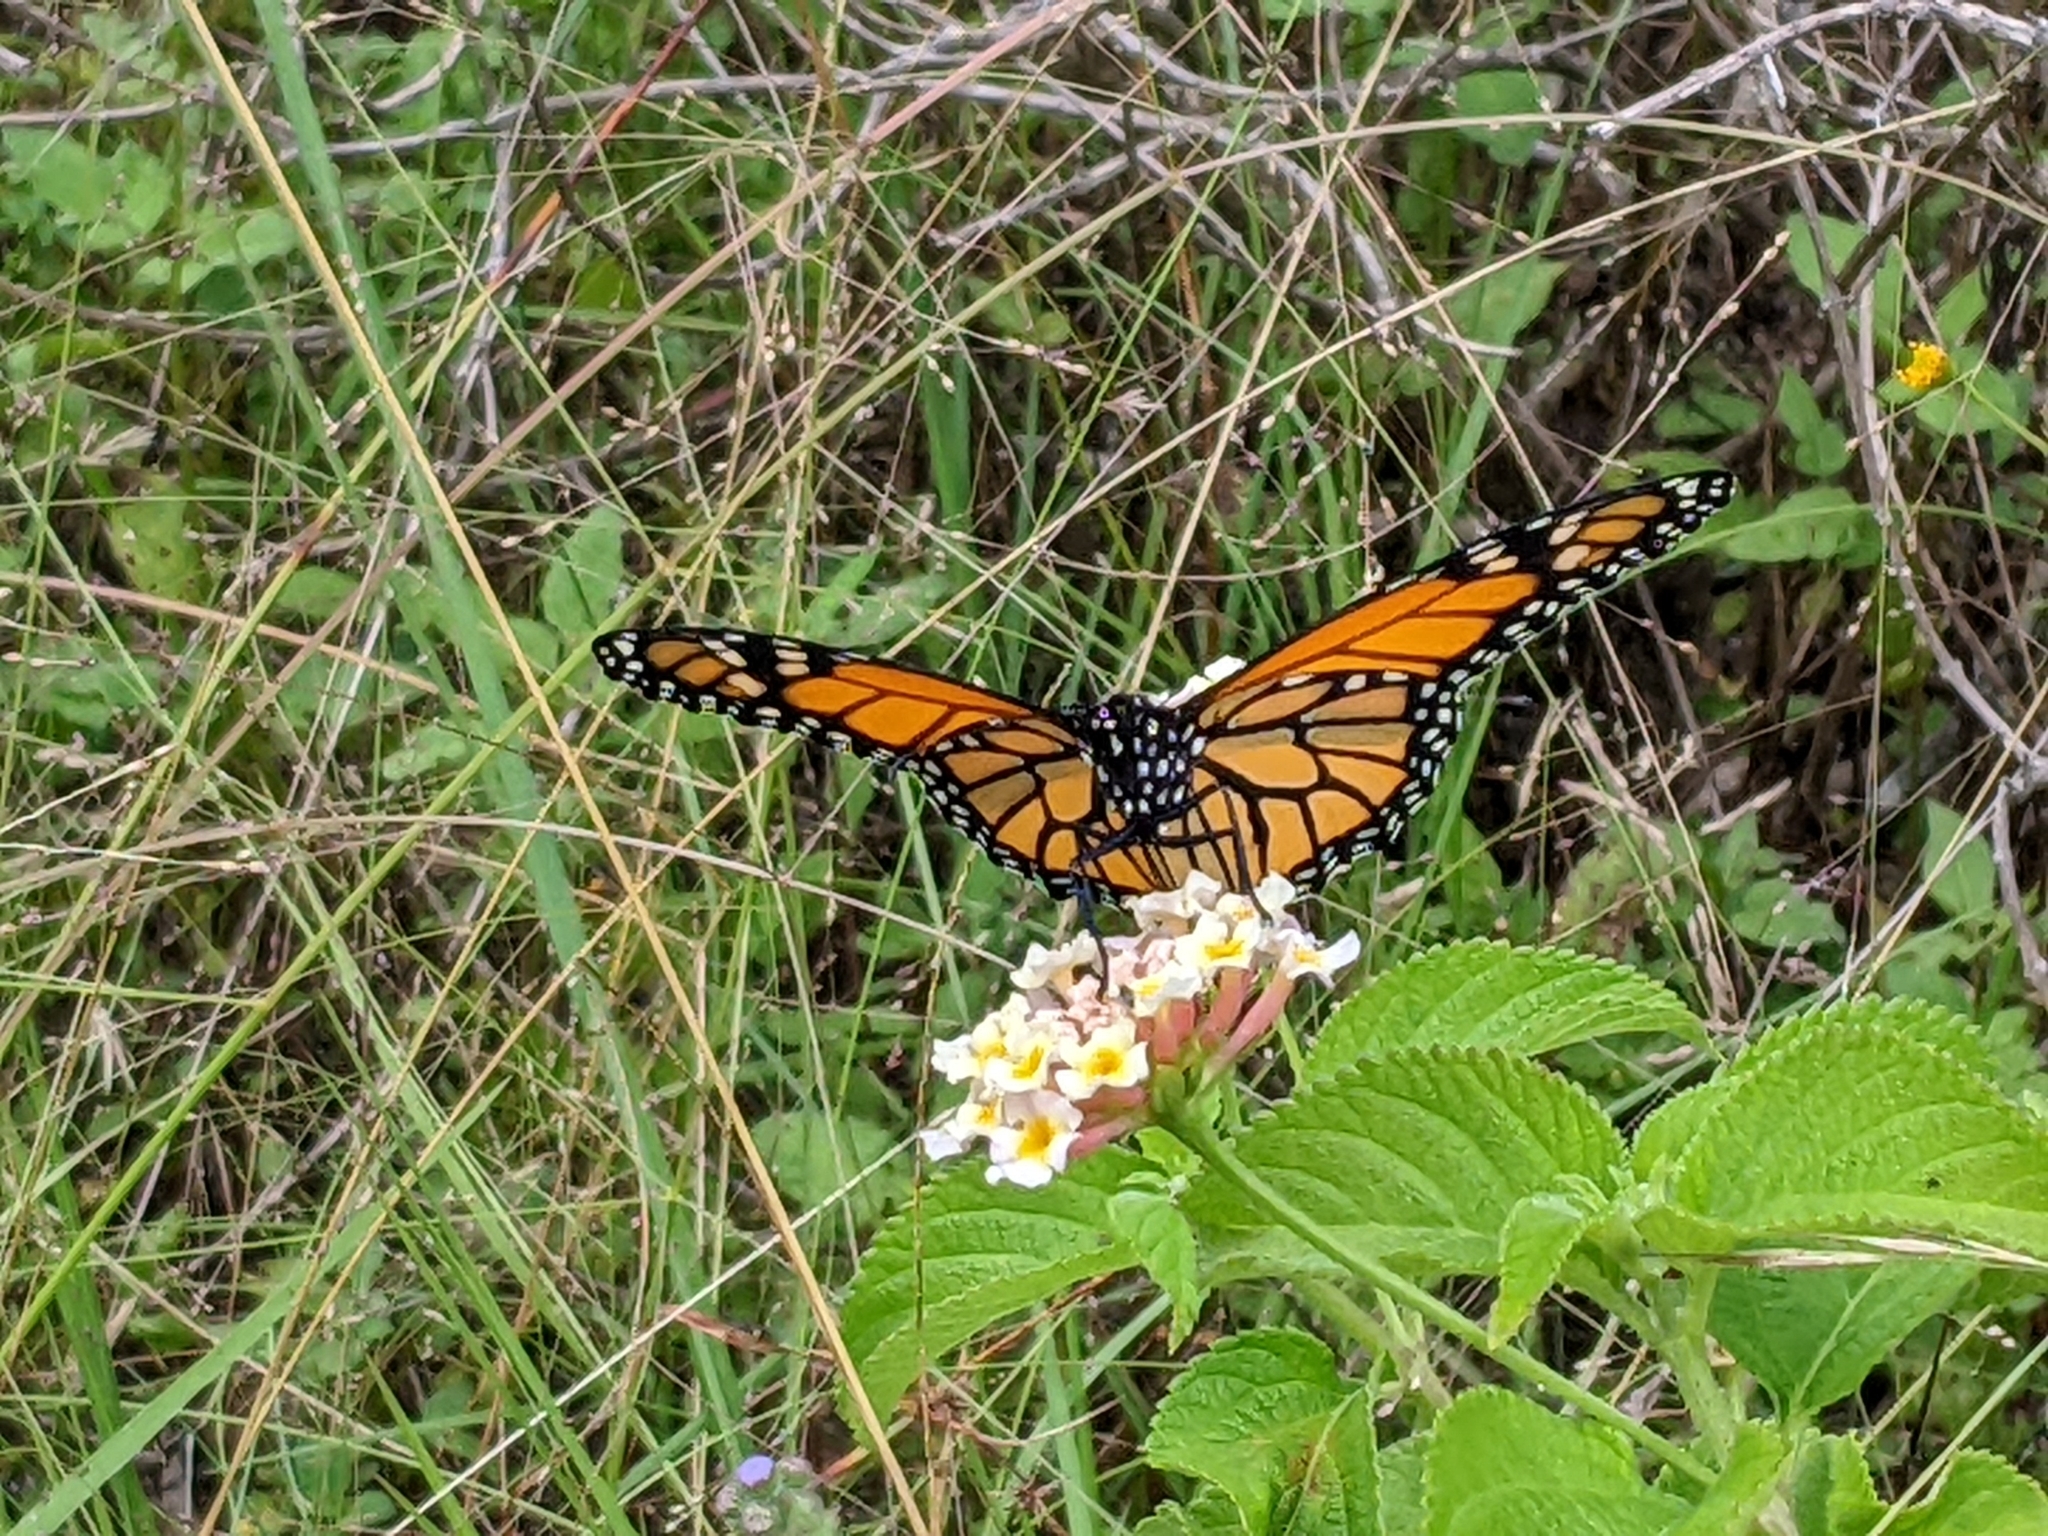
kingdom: Animalia
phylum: Arthropoda
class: Insecta
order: Lepidoptera
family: Nymphalidae
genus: Danaus
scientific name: Danaus plexippus
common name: Monarch
